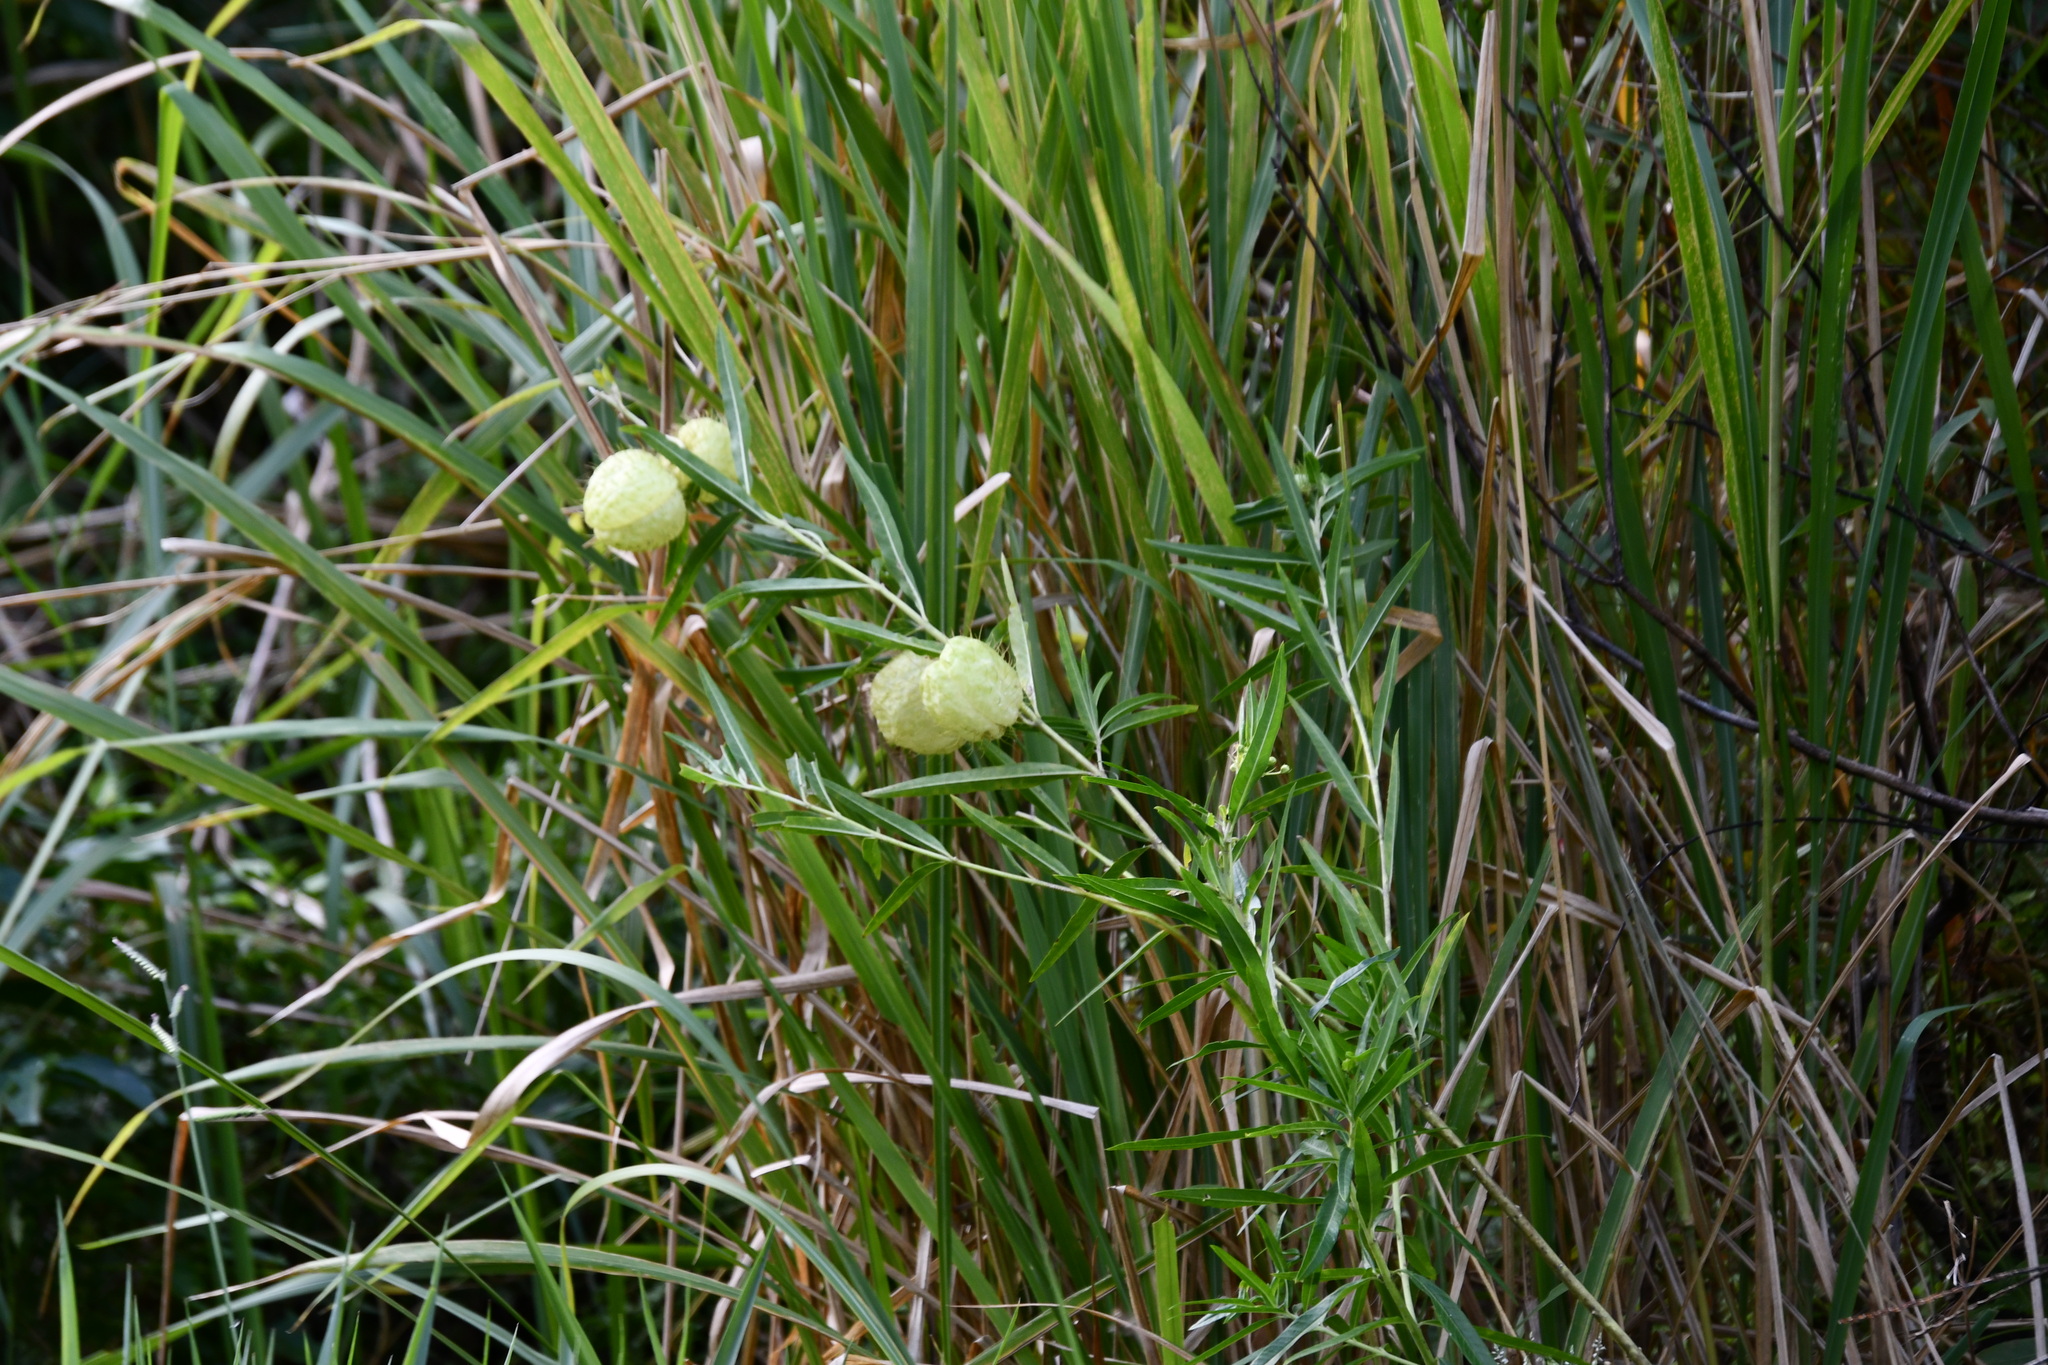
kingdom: Plantae
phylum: Tracheophyta
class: Magnoliopsida
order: Gentianales
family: Apocynaceae
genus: Gomphocarpus
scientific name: Gomphocarpus physocarpus
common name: Balloon cotton bush
